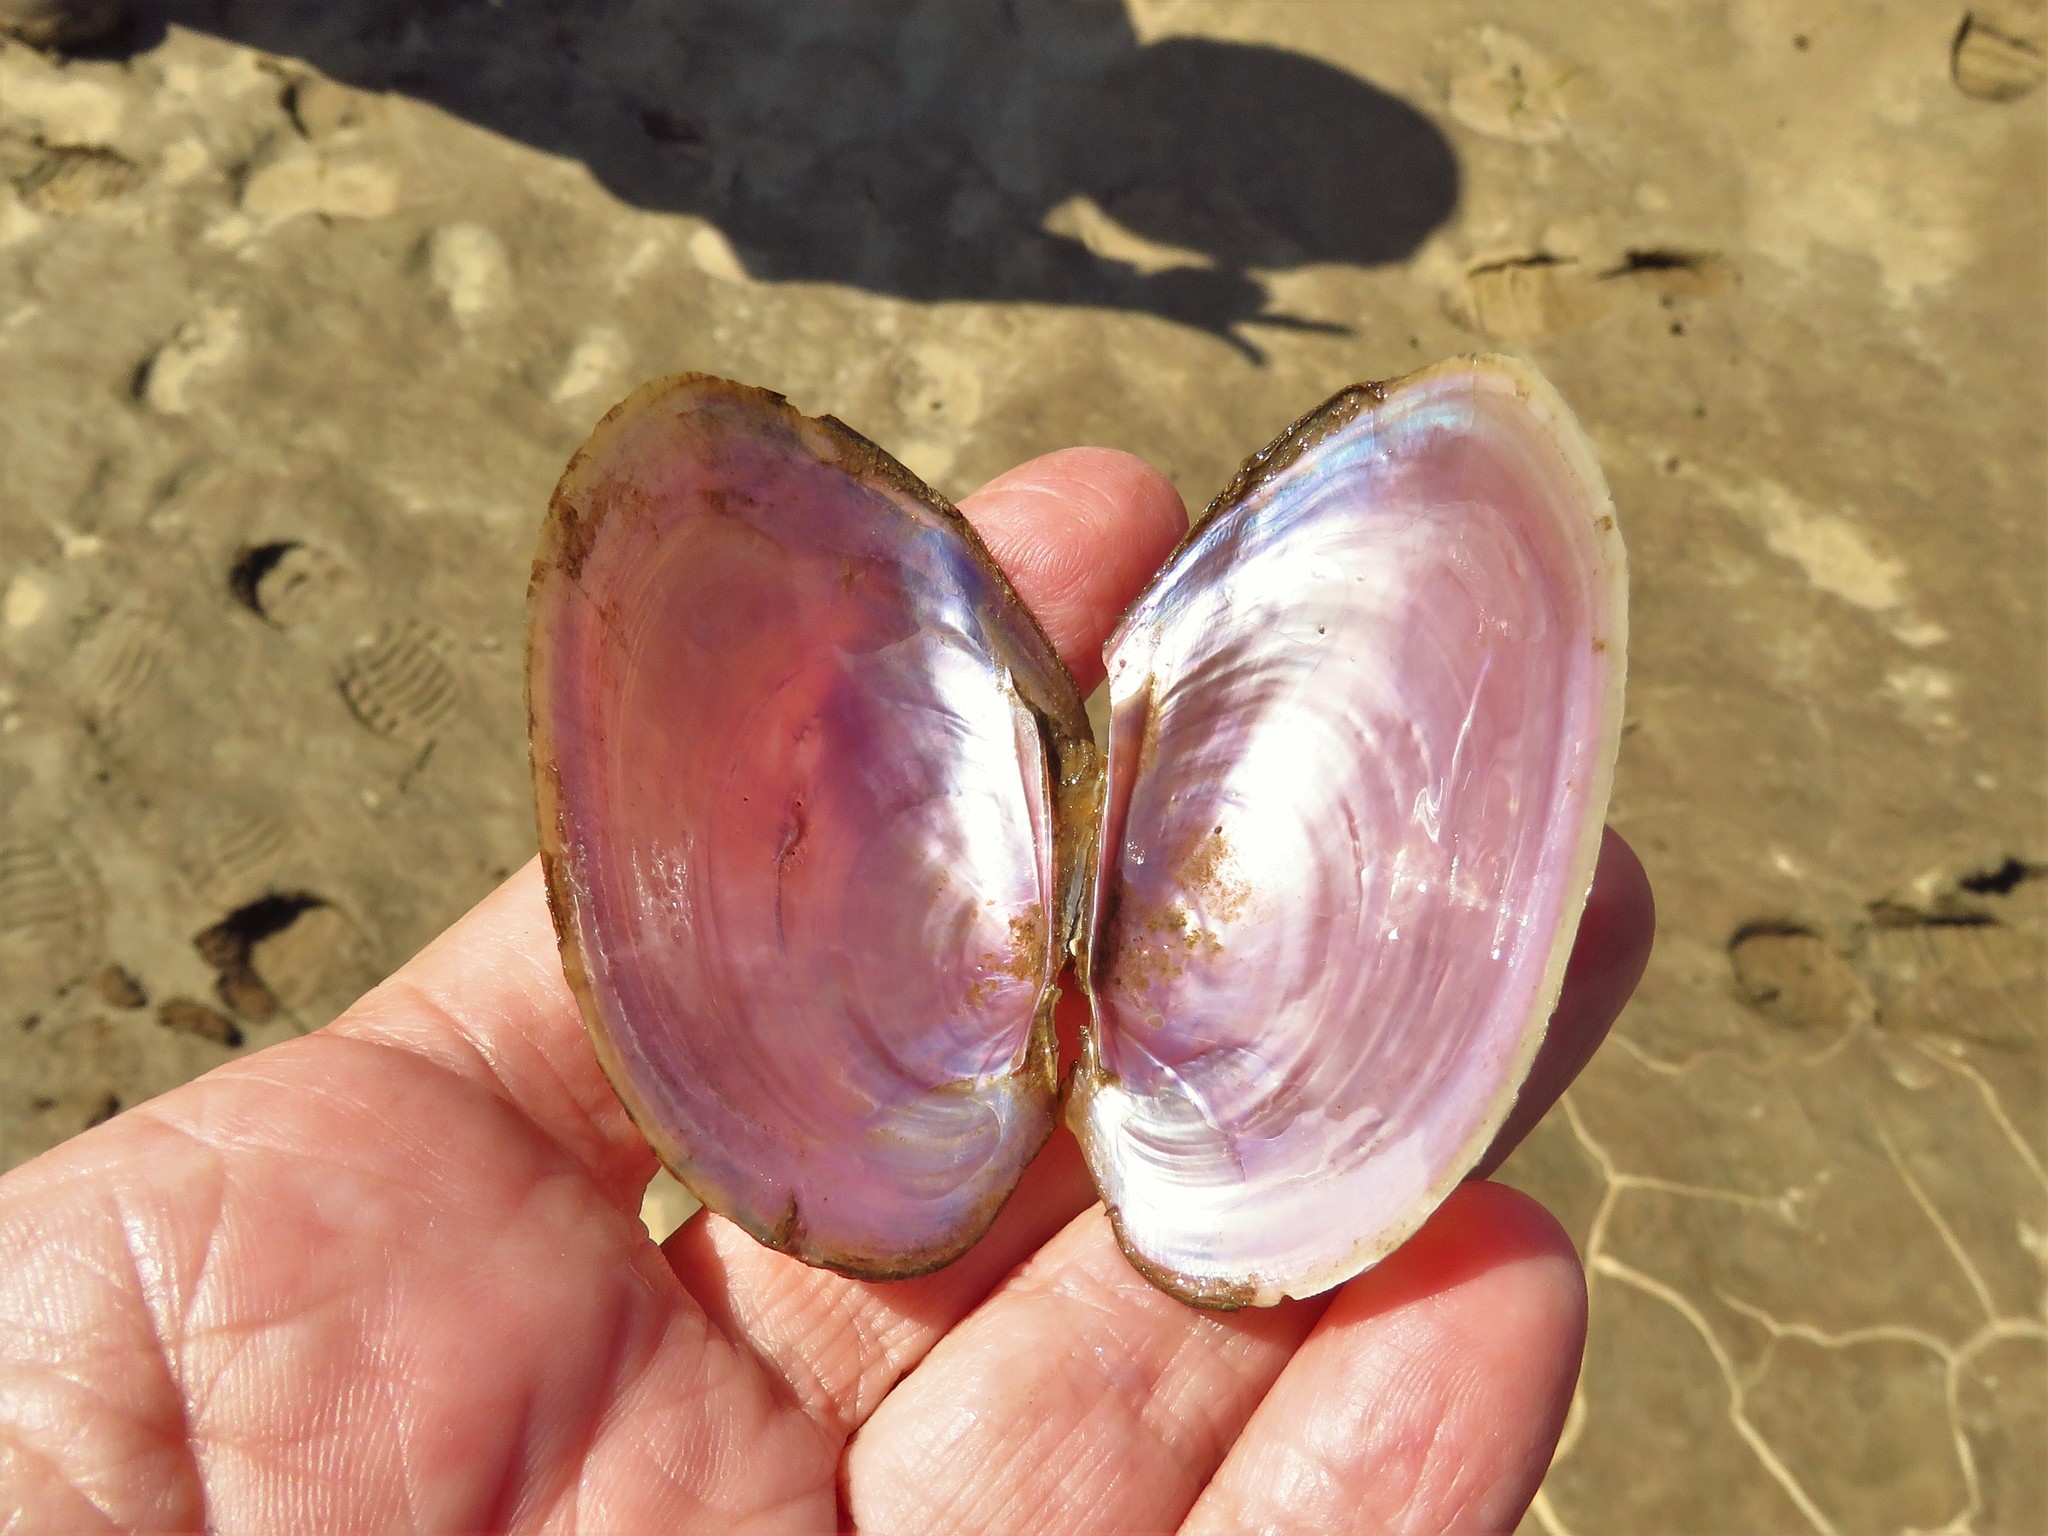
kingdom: Animalia
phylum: Mollusca
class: Bivalvia
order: Unionida
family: Unionidae
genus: Potamilus
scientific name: Potamilus ohiensis
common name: Pink papershell
